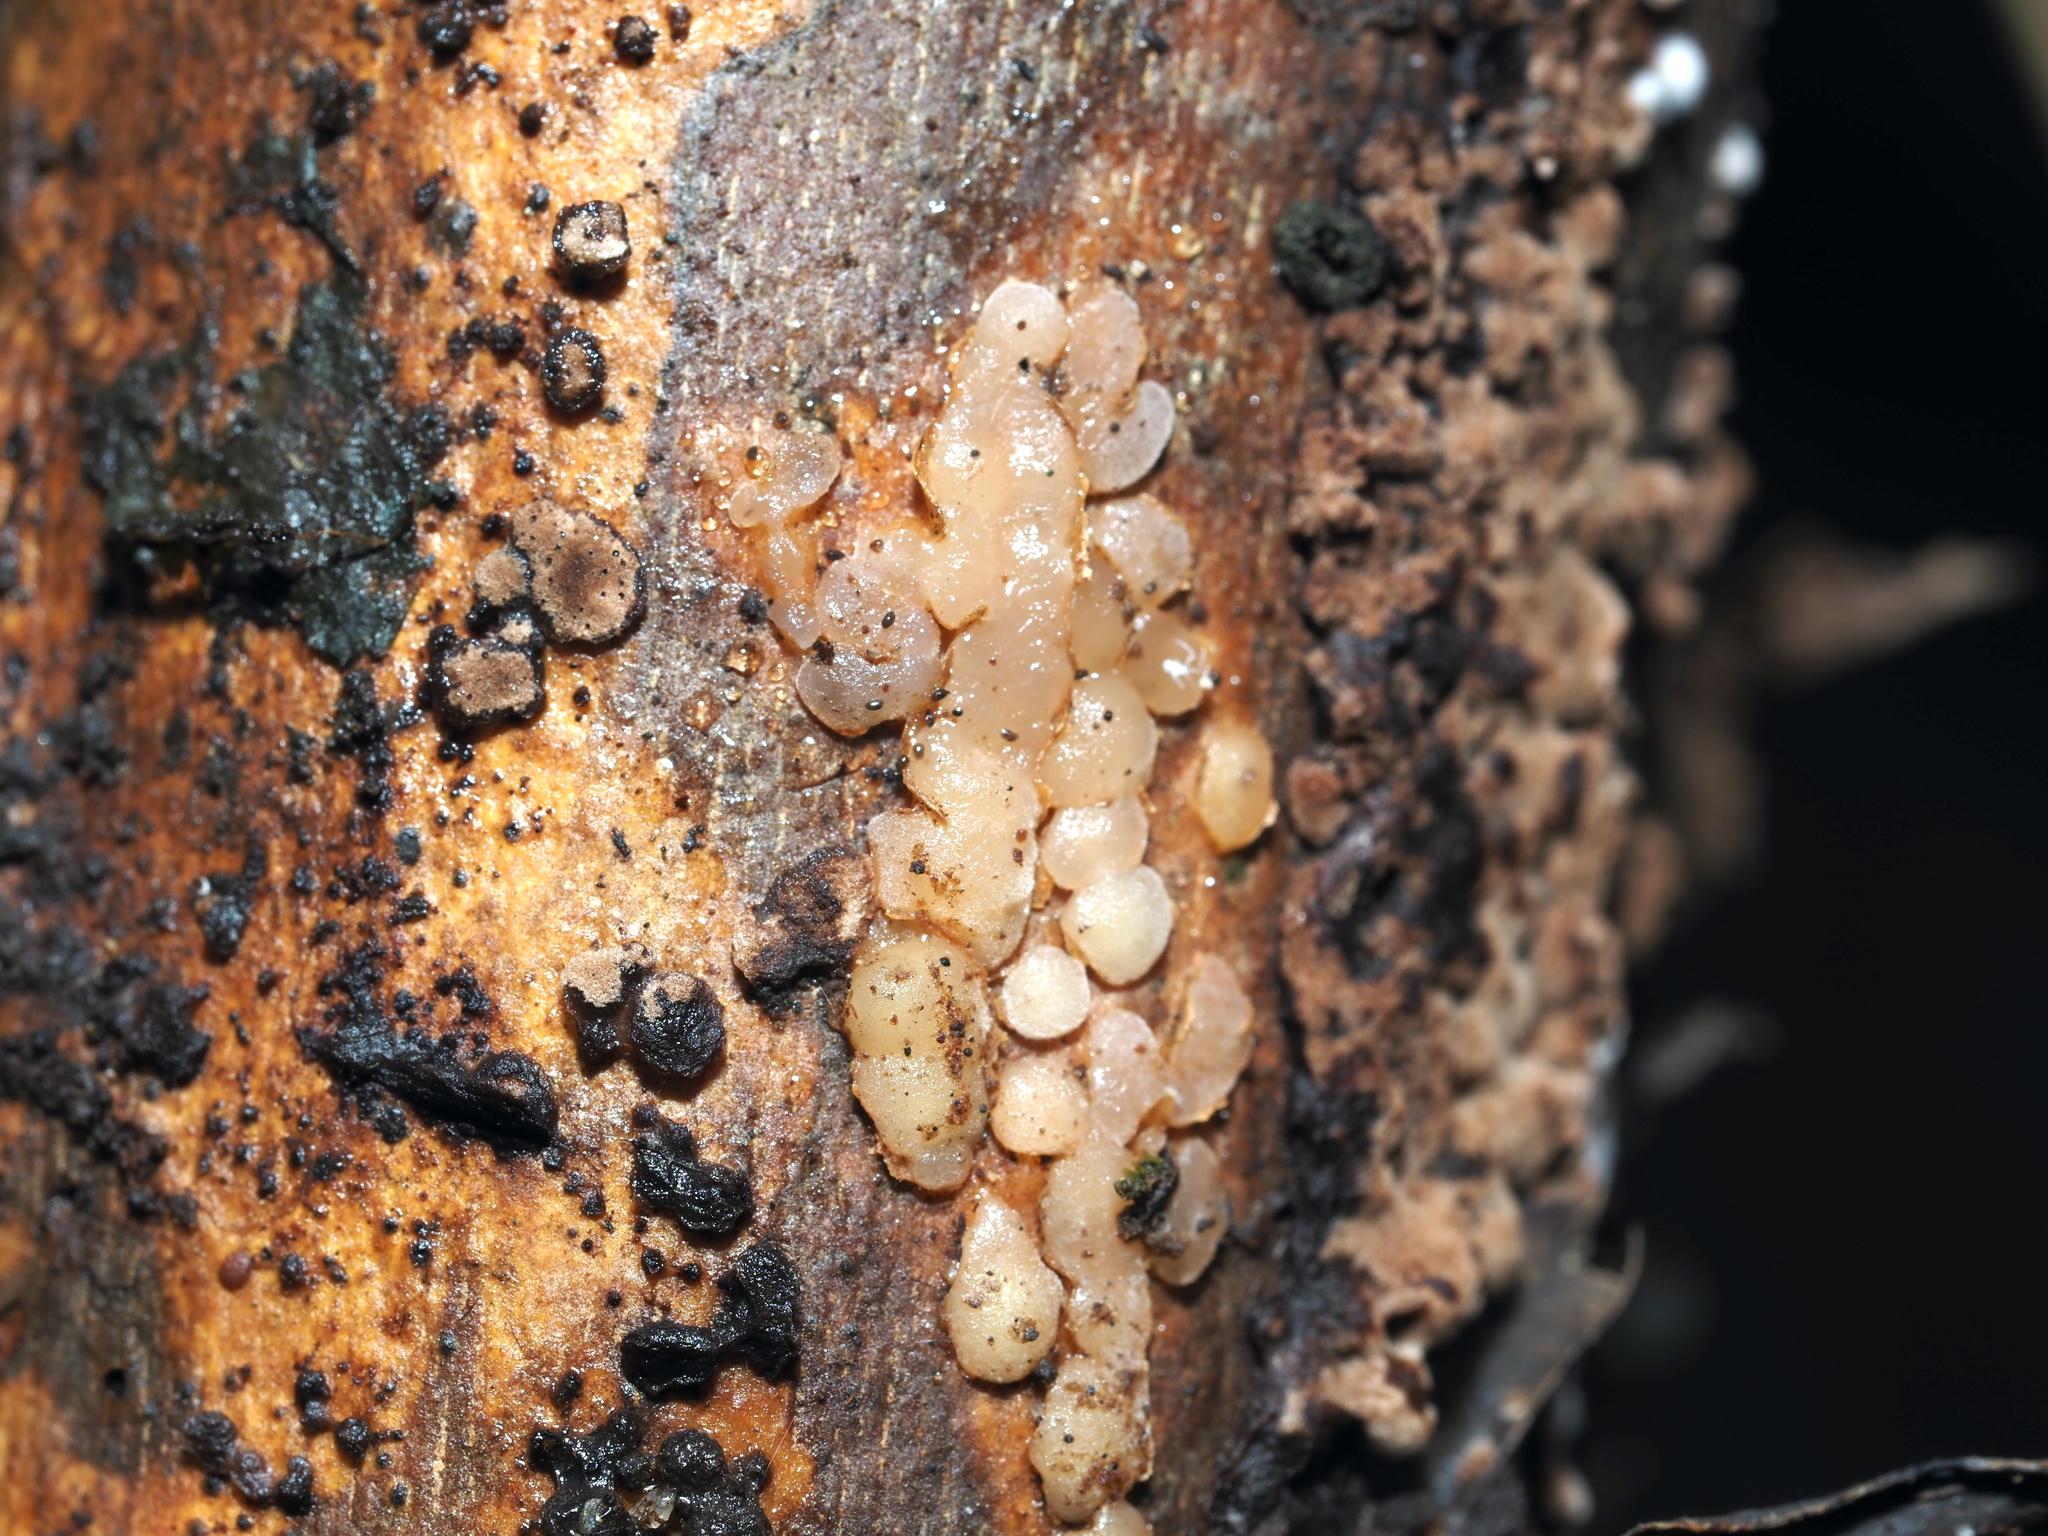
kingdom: Fungi
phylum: Ascomycota
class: Leotiomycetes
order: Helotiales
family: Gelatinodiscaceae
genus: Neobulgaria
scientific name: Neobulgaria pura
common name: Beech jelly-disc
